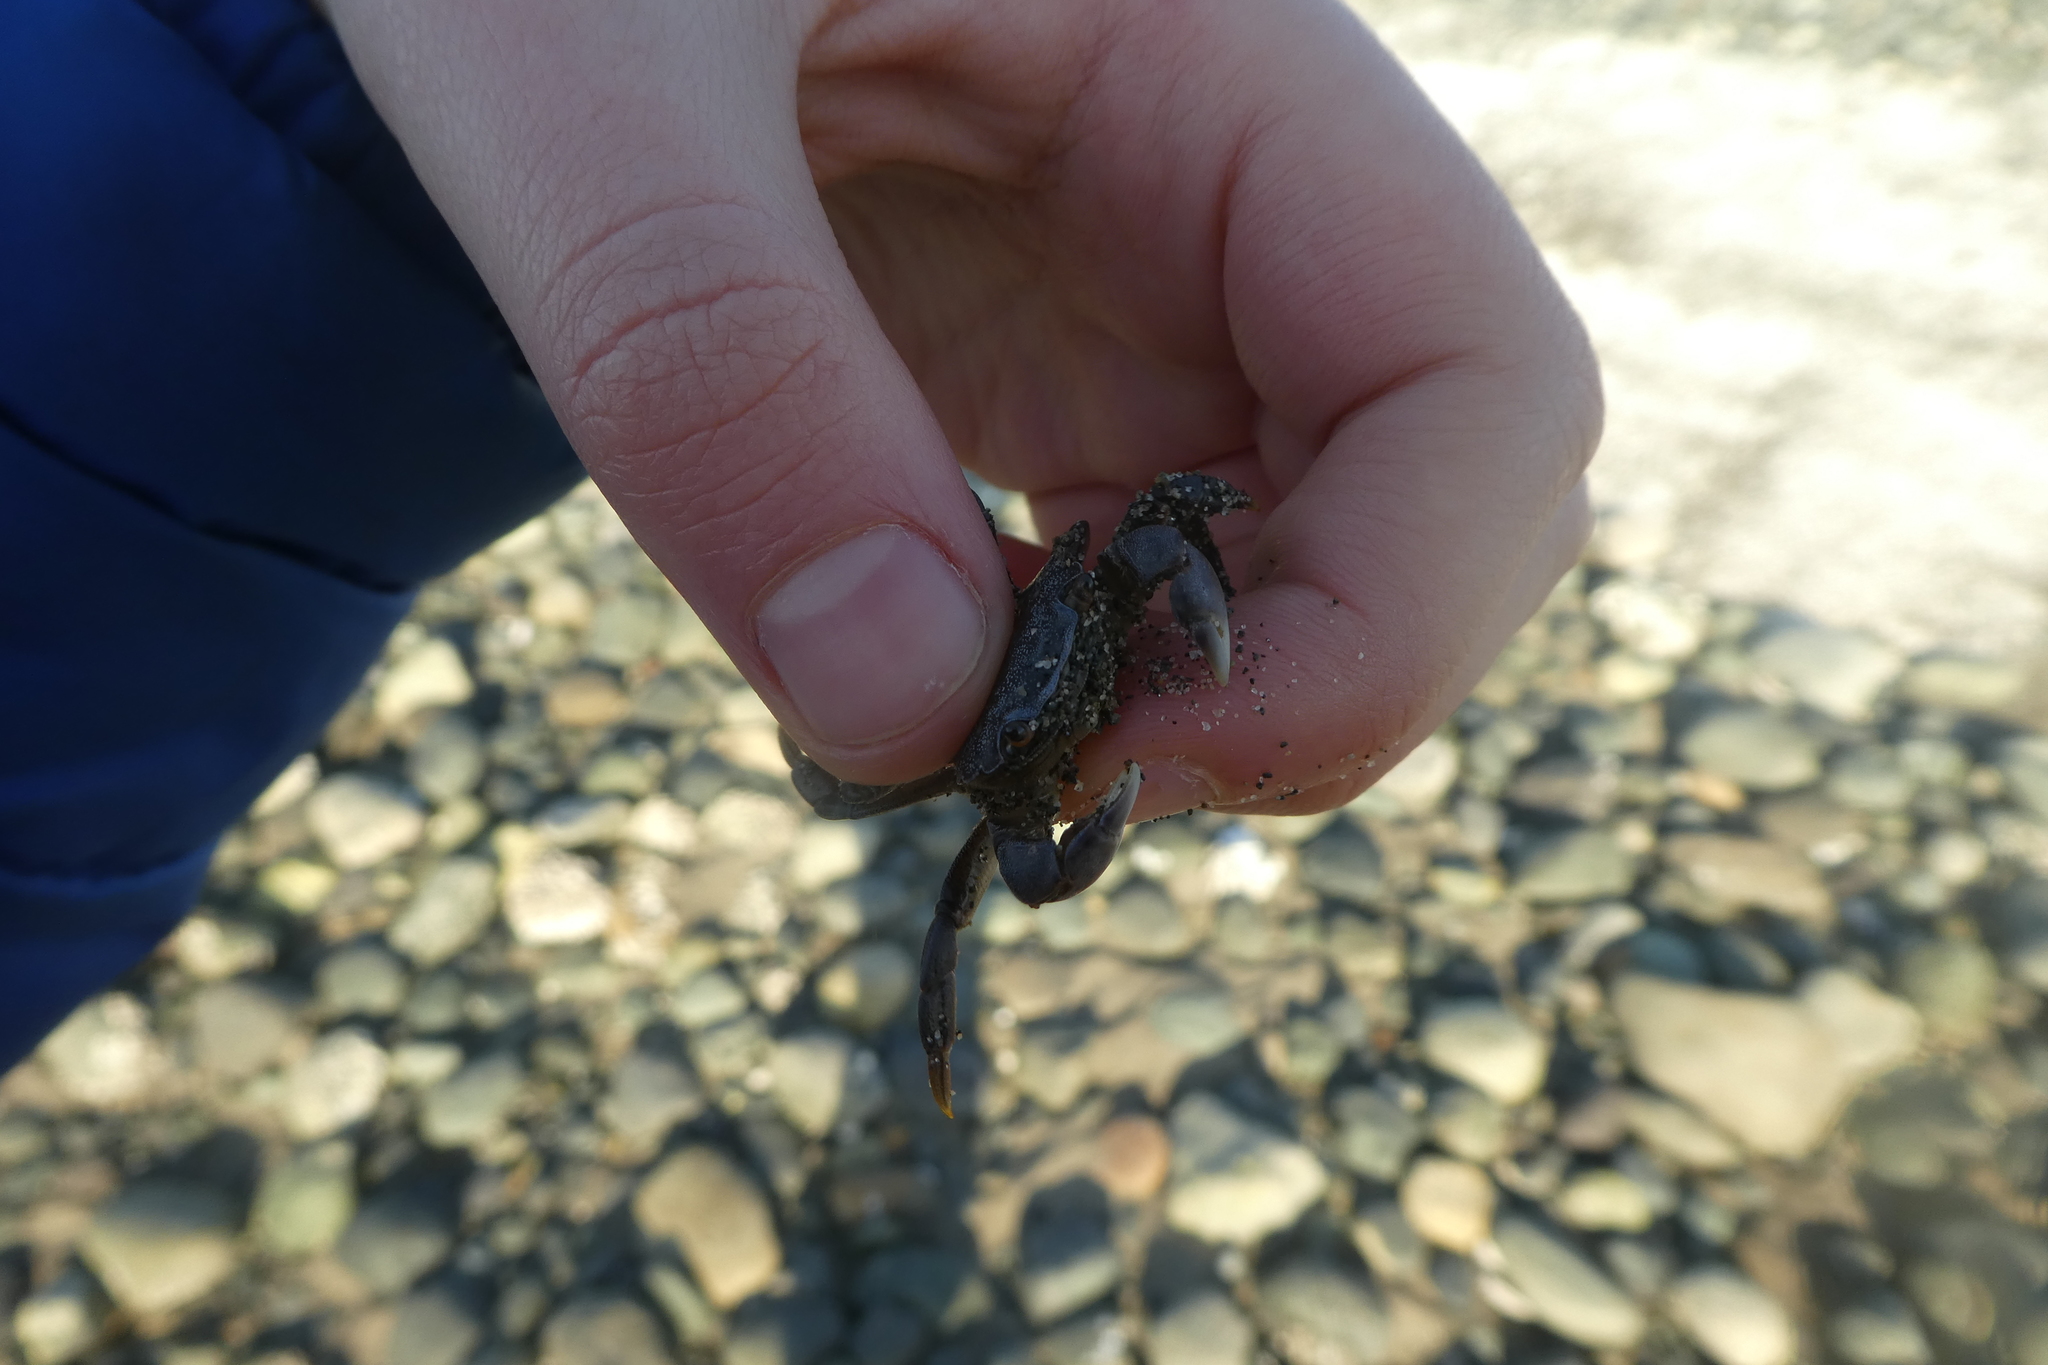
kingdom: Animalia
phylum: Arthropoda
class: Malacostraca
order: Decapoda
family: Varunidae
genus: Hemigrapsus
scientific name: Hemigrapsus nudus
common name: Purple shore crab
